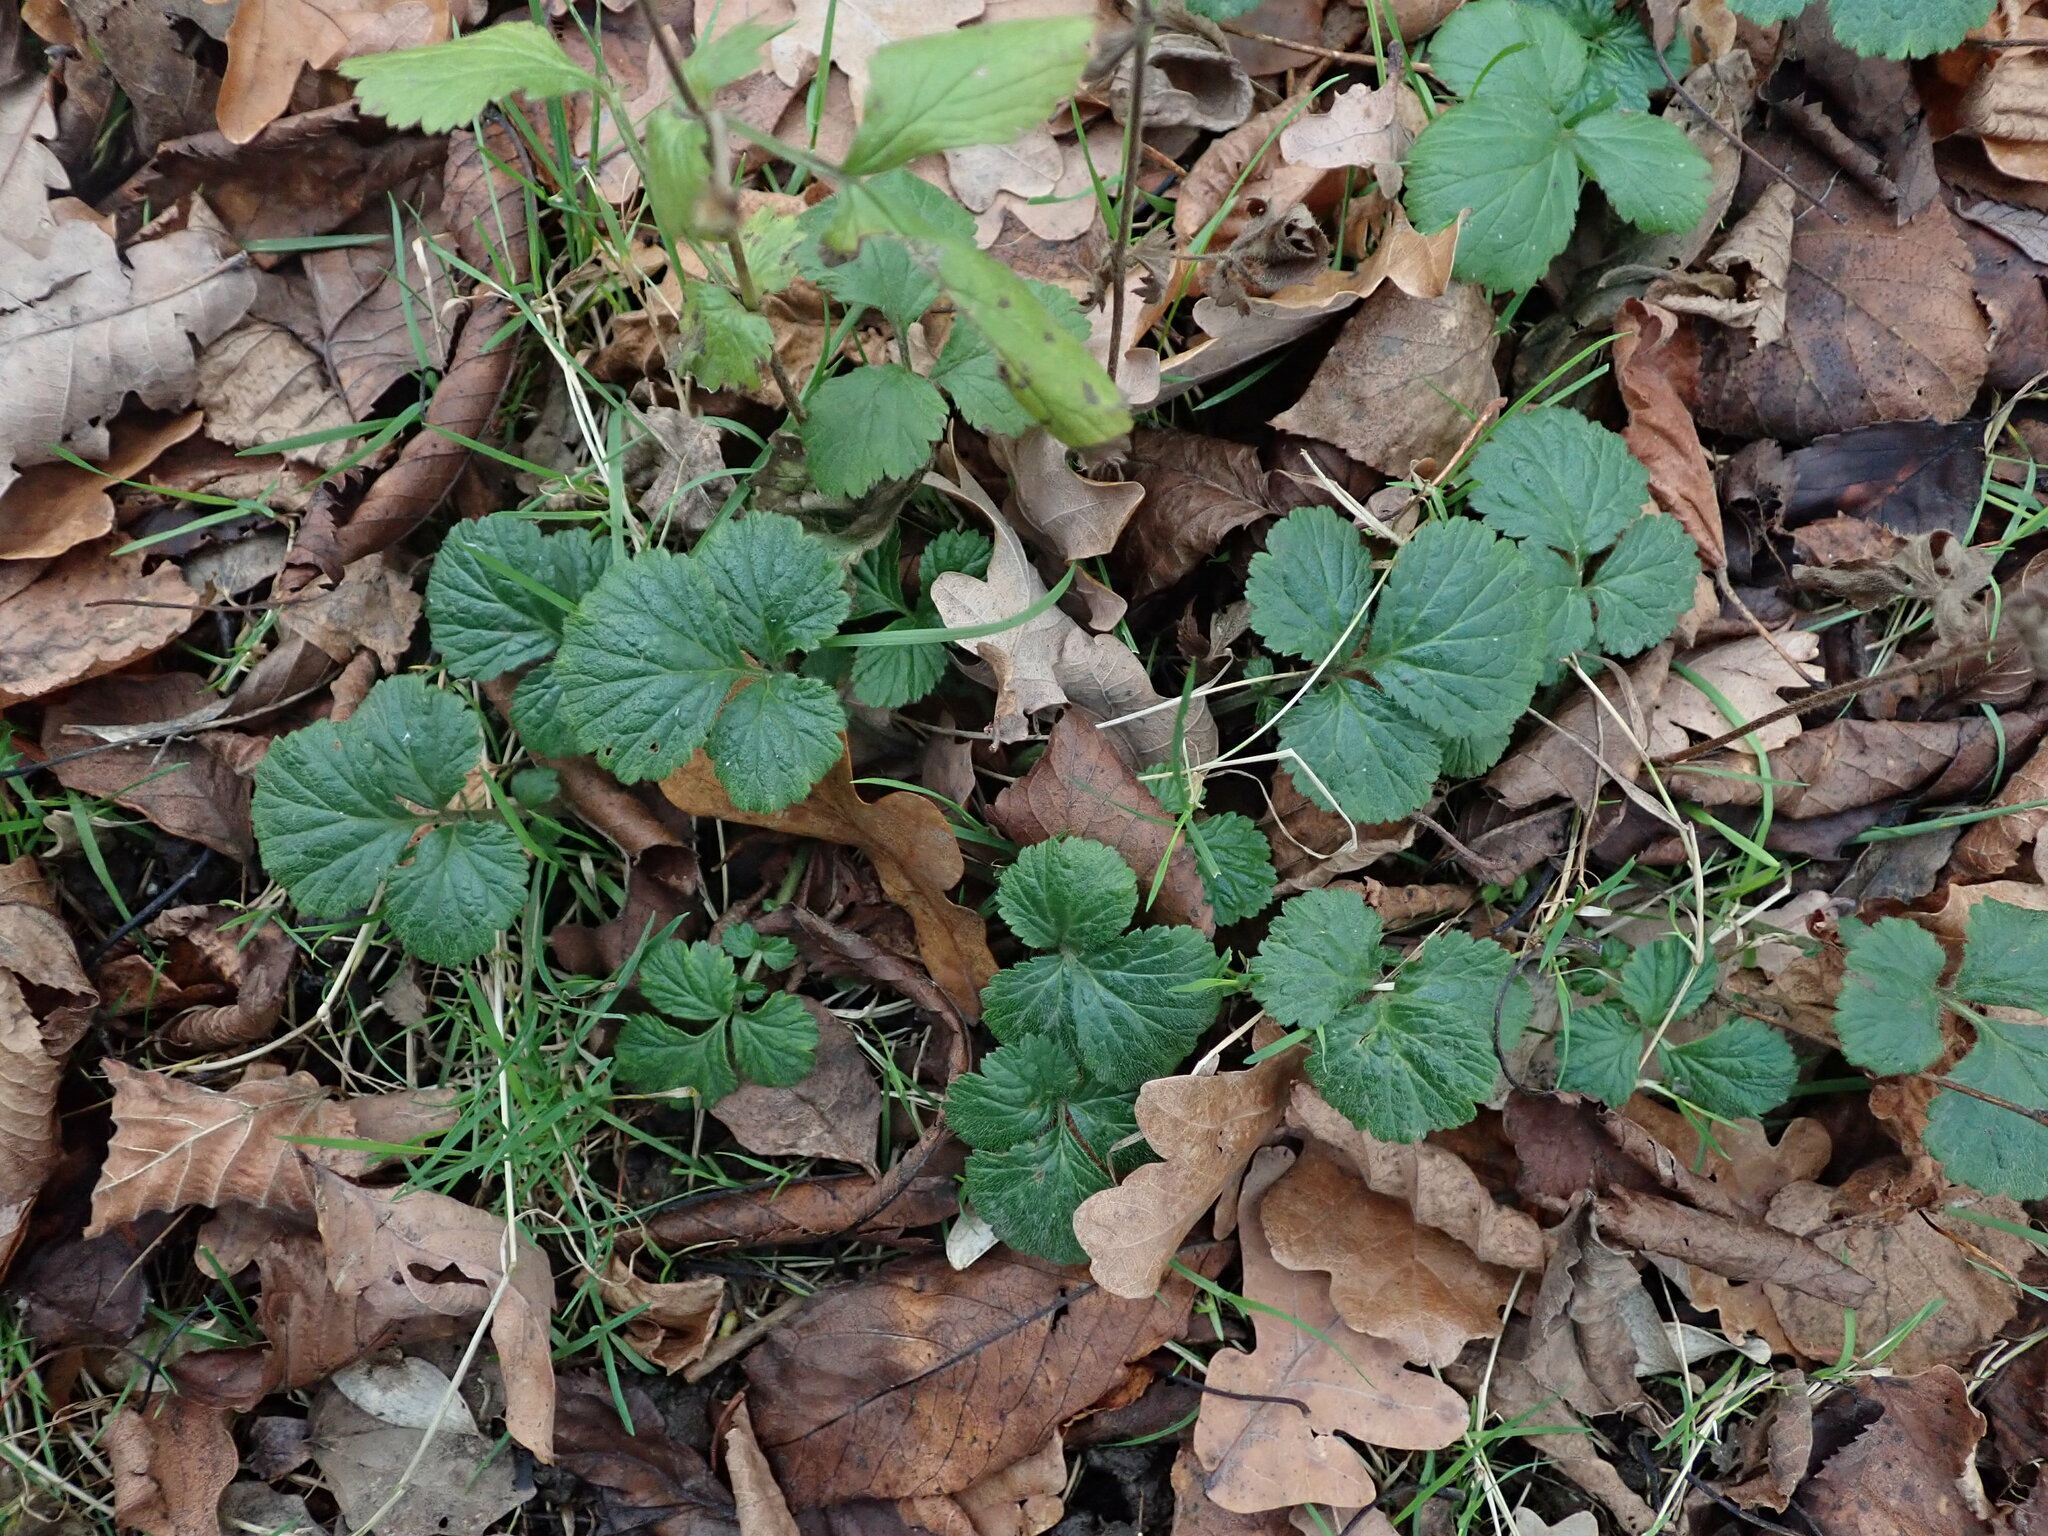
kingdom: Plantae
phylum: Tracheophyta
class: Magnoliopsida
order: Rosales
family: Rosaceae
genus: Geum
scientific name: Geum urbanum
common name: Wood avens
